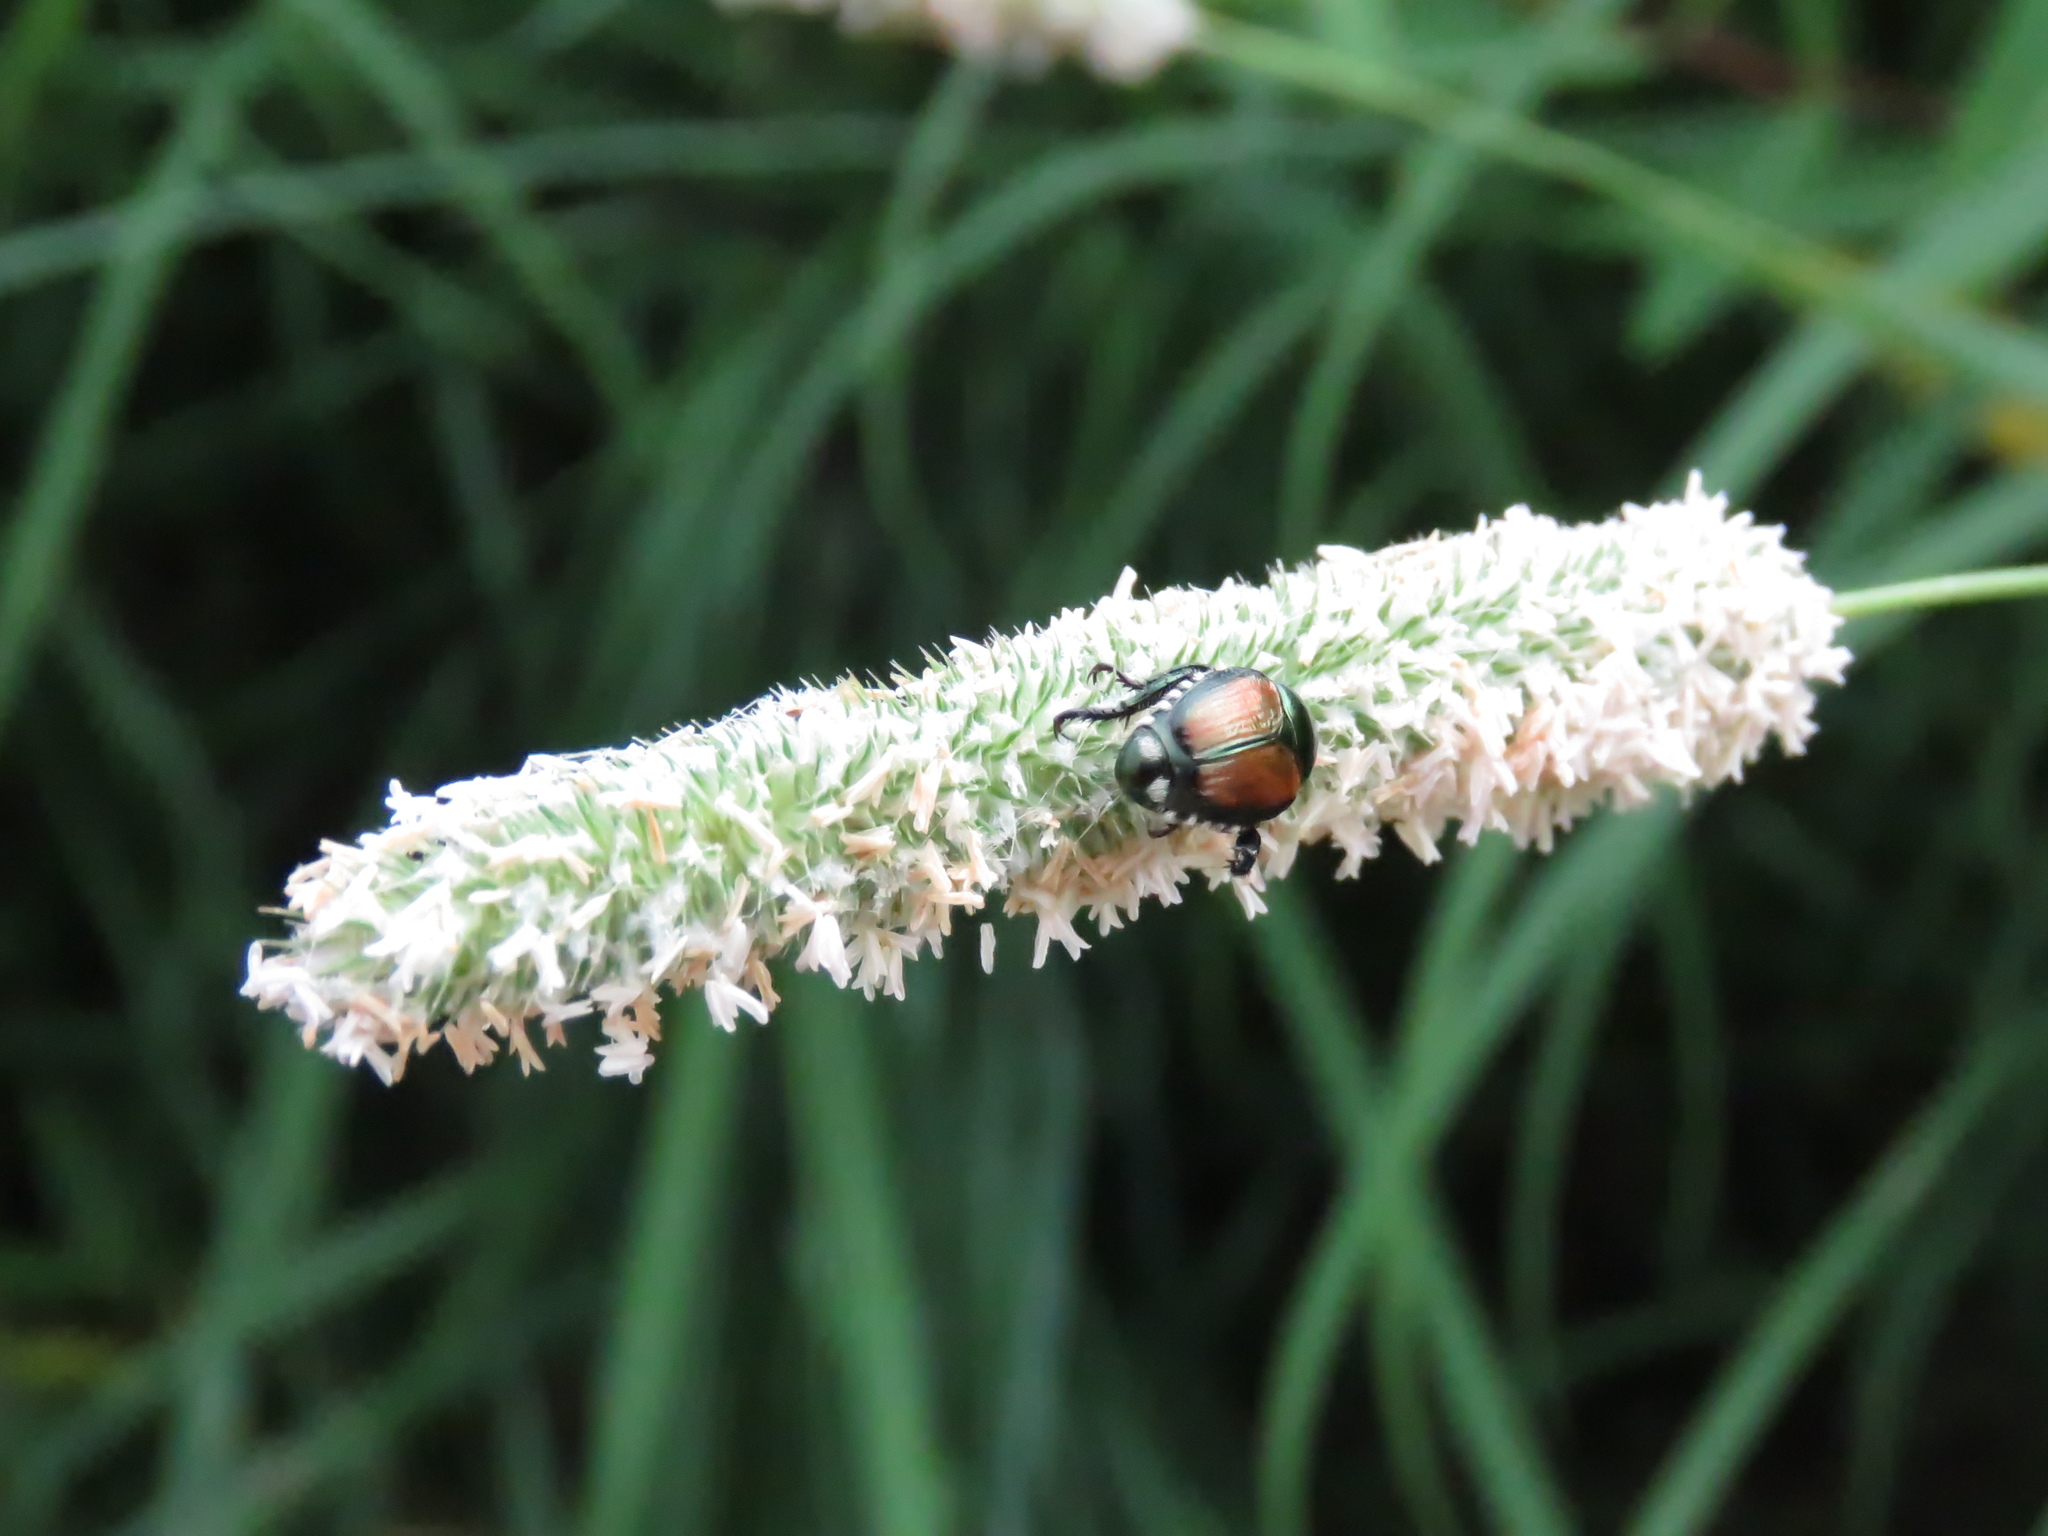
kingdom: Animalia
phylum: Arthropoda
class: Insecta
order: Coleoptera
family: Scarabaeidae
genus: Popillia
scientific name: Popillia japonica
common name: Japanese beetle
